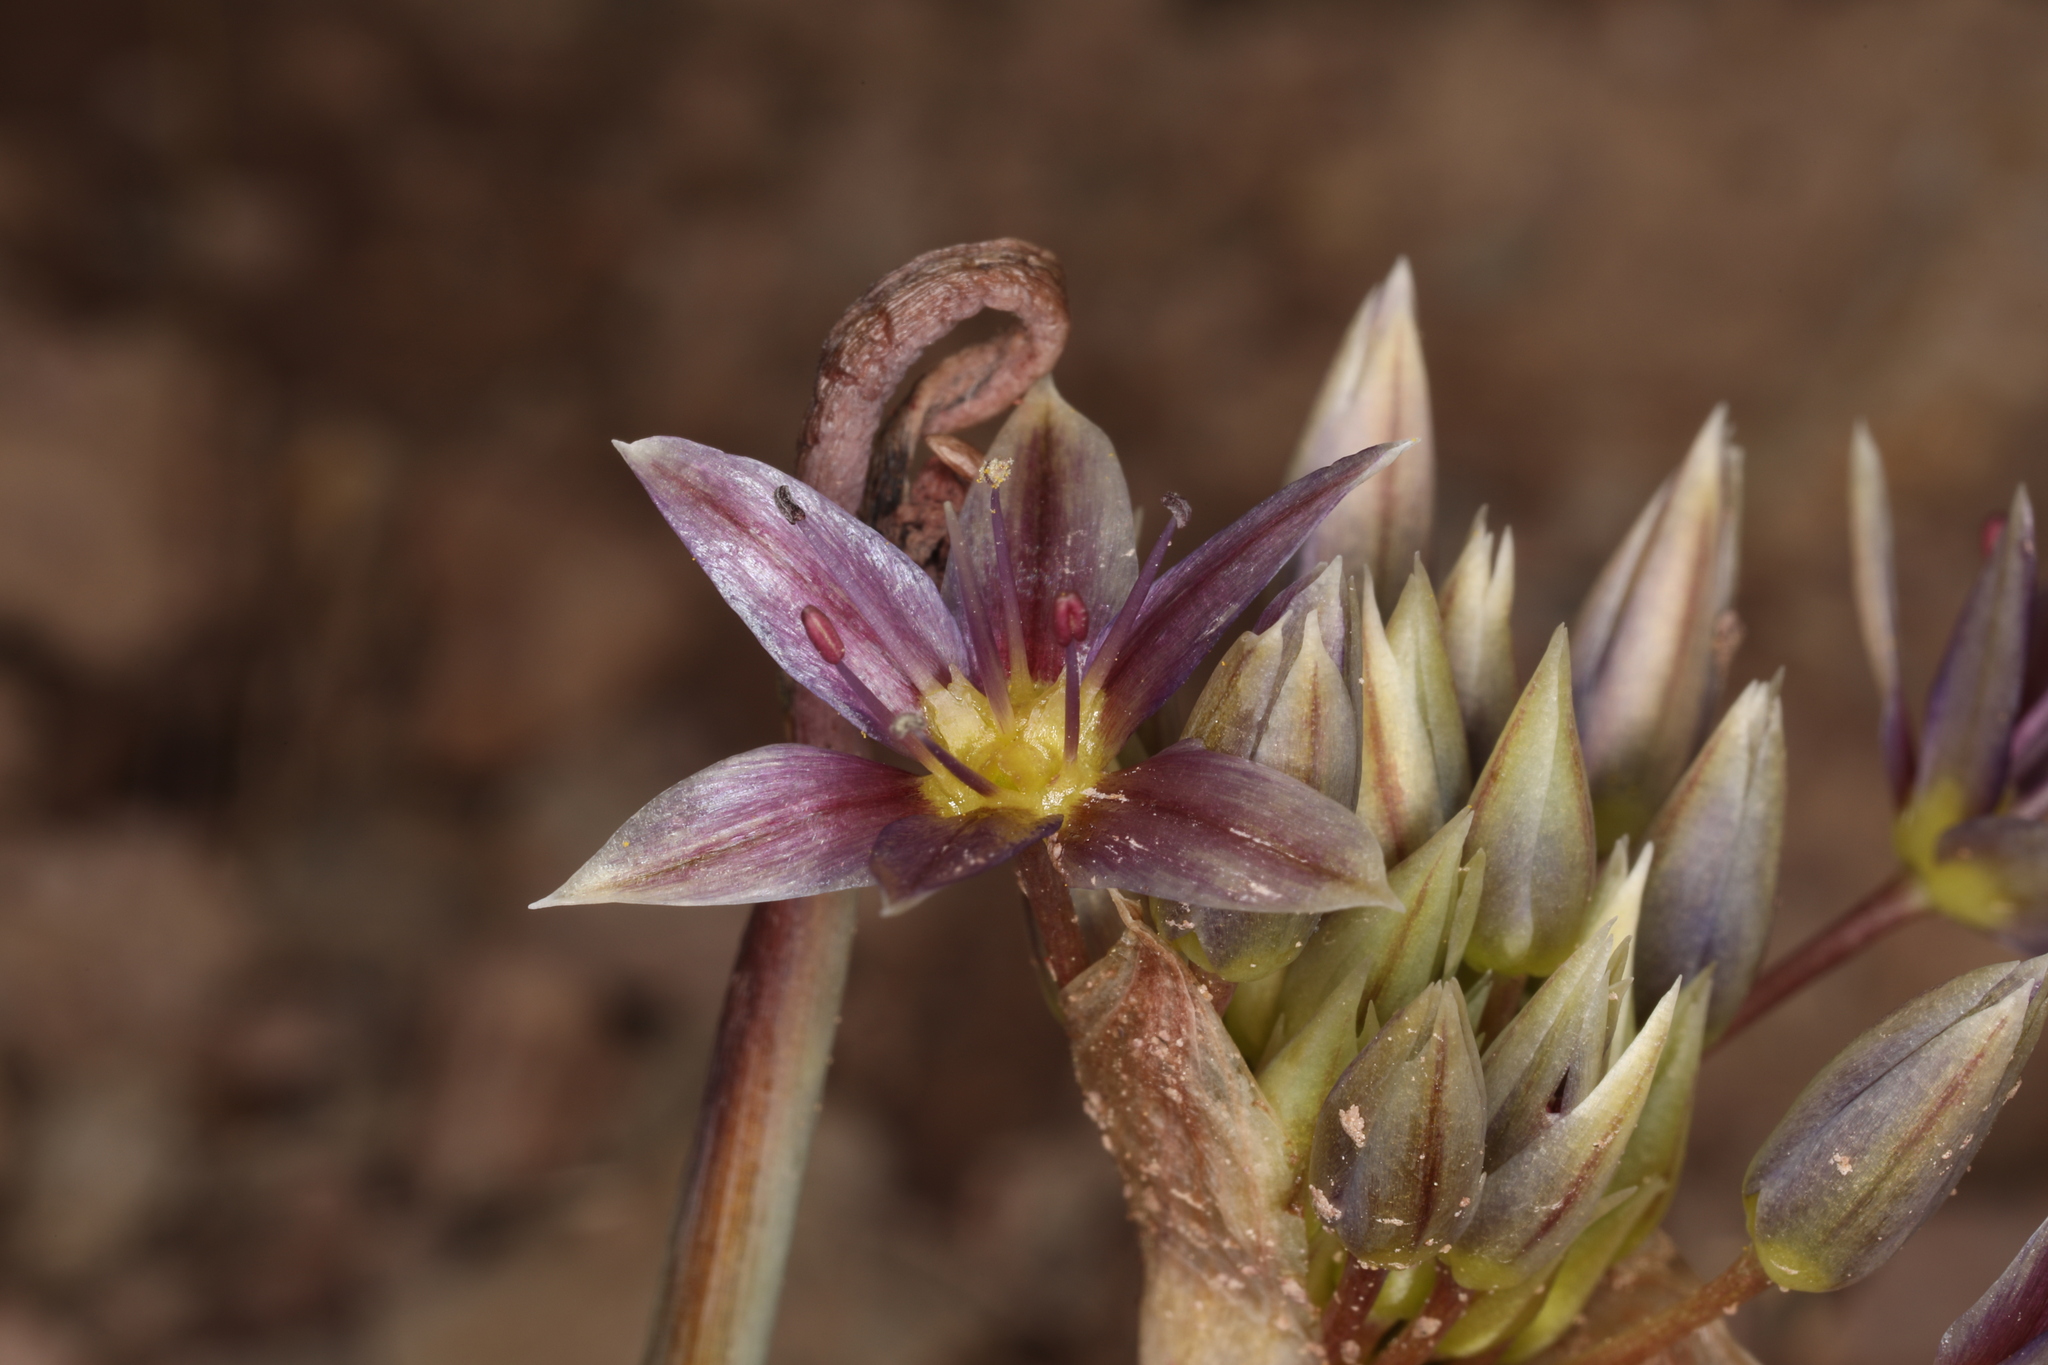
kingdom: Plantae
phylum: Tracheophyta
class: Liliopsida
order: Asparagales
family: Amaryllidaceae
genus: Allium
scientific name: Allium atrorubens
